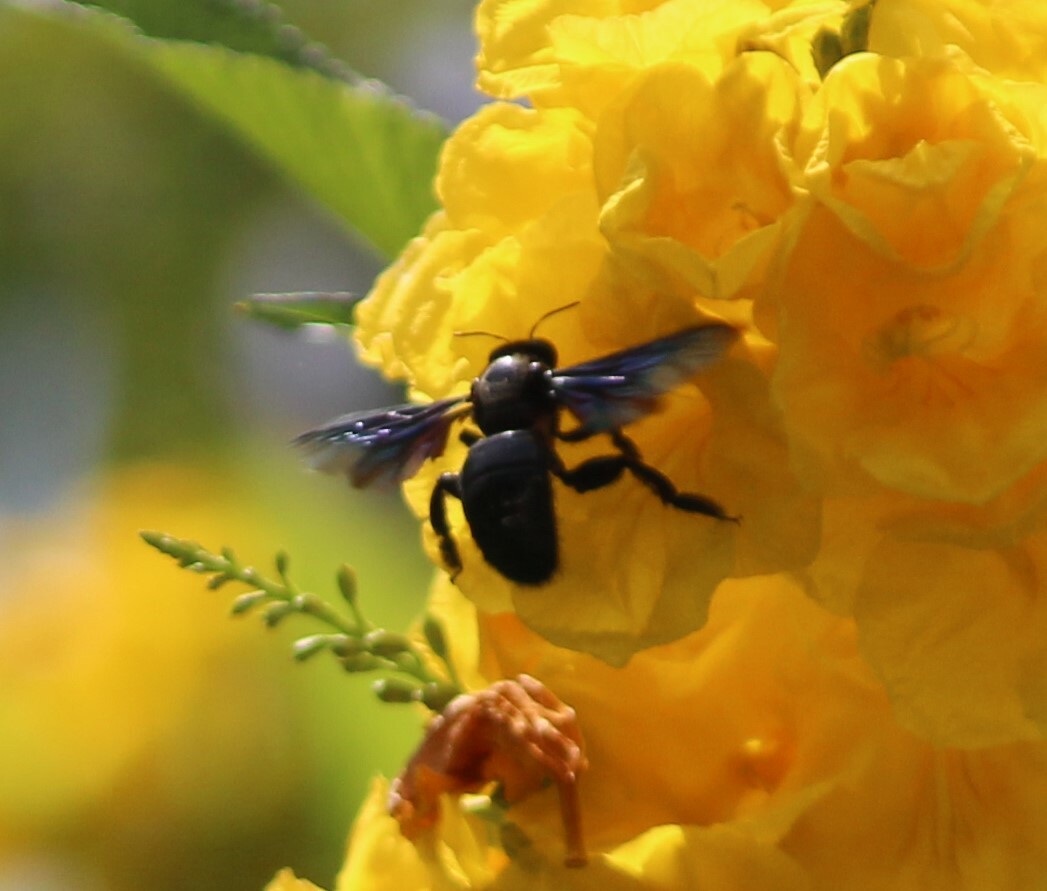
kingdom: Animalia
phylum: Arthropoda
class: Insecta
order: Hymenoptera
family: Apidae
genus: Xylocopa
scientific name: Xylocopa auripennis
